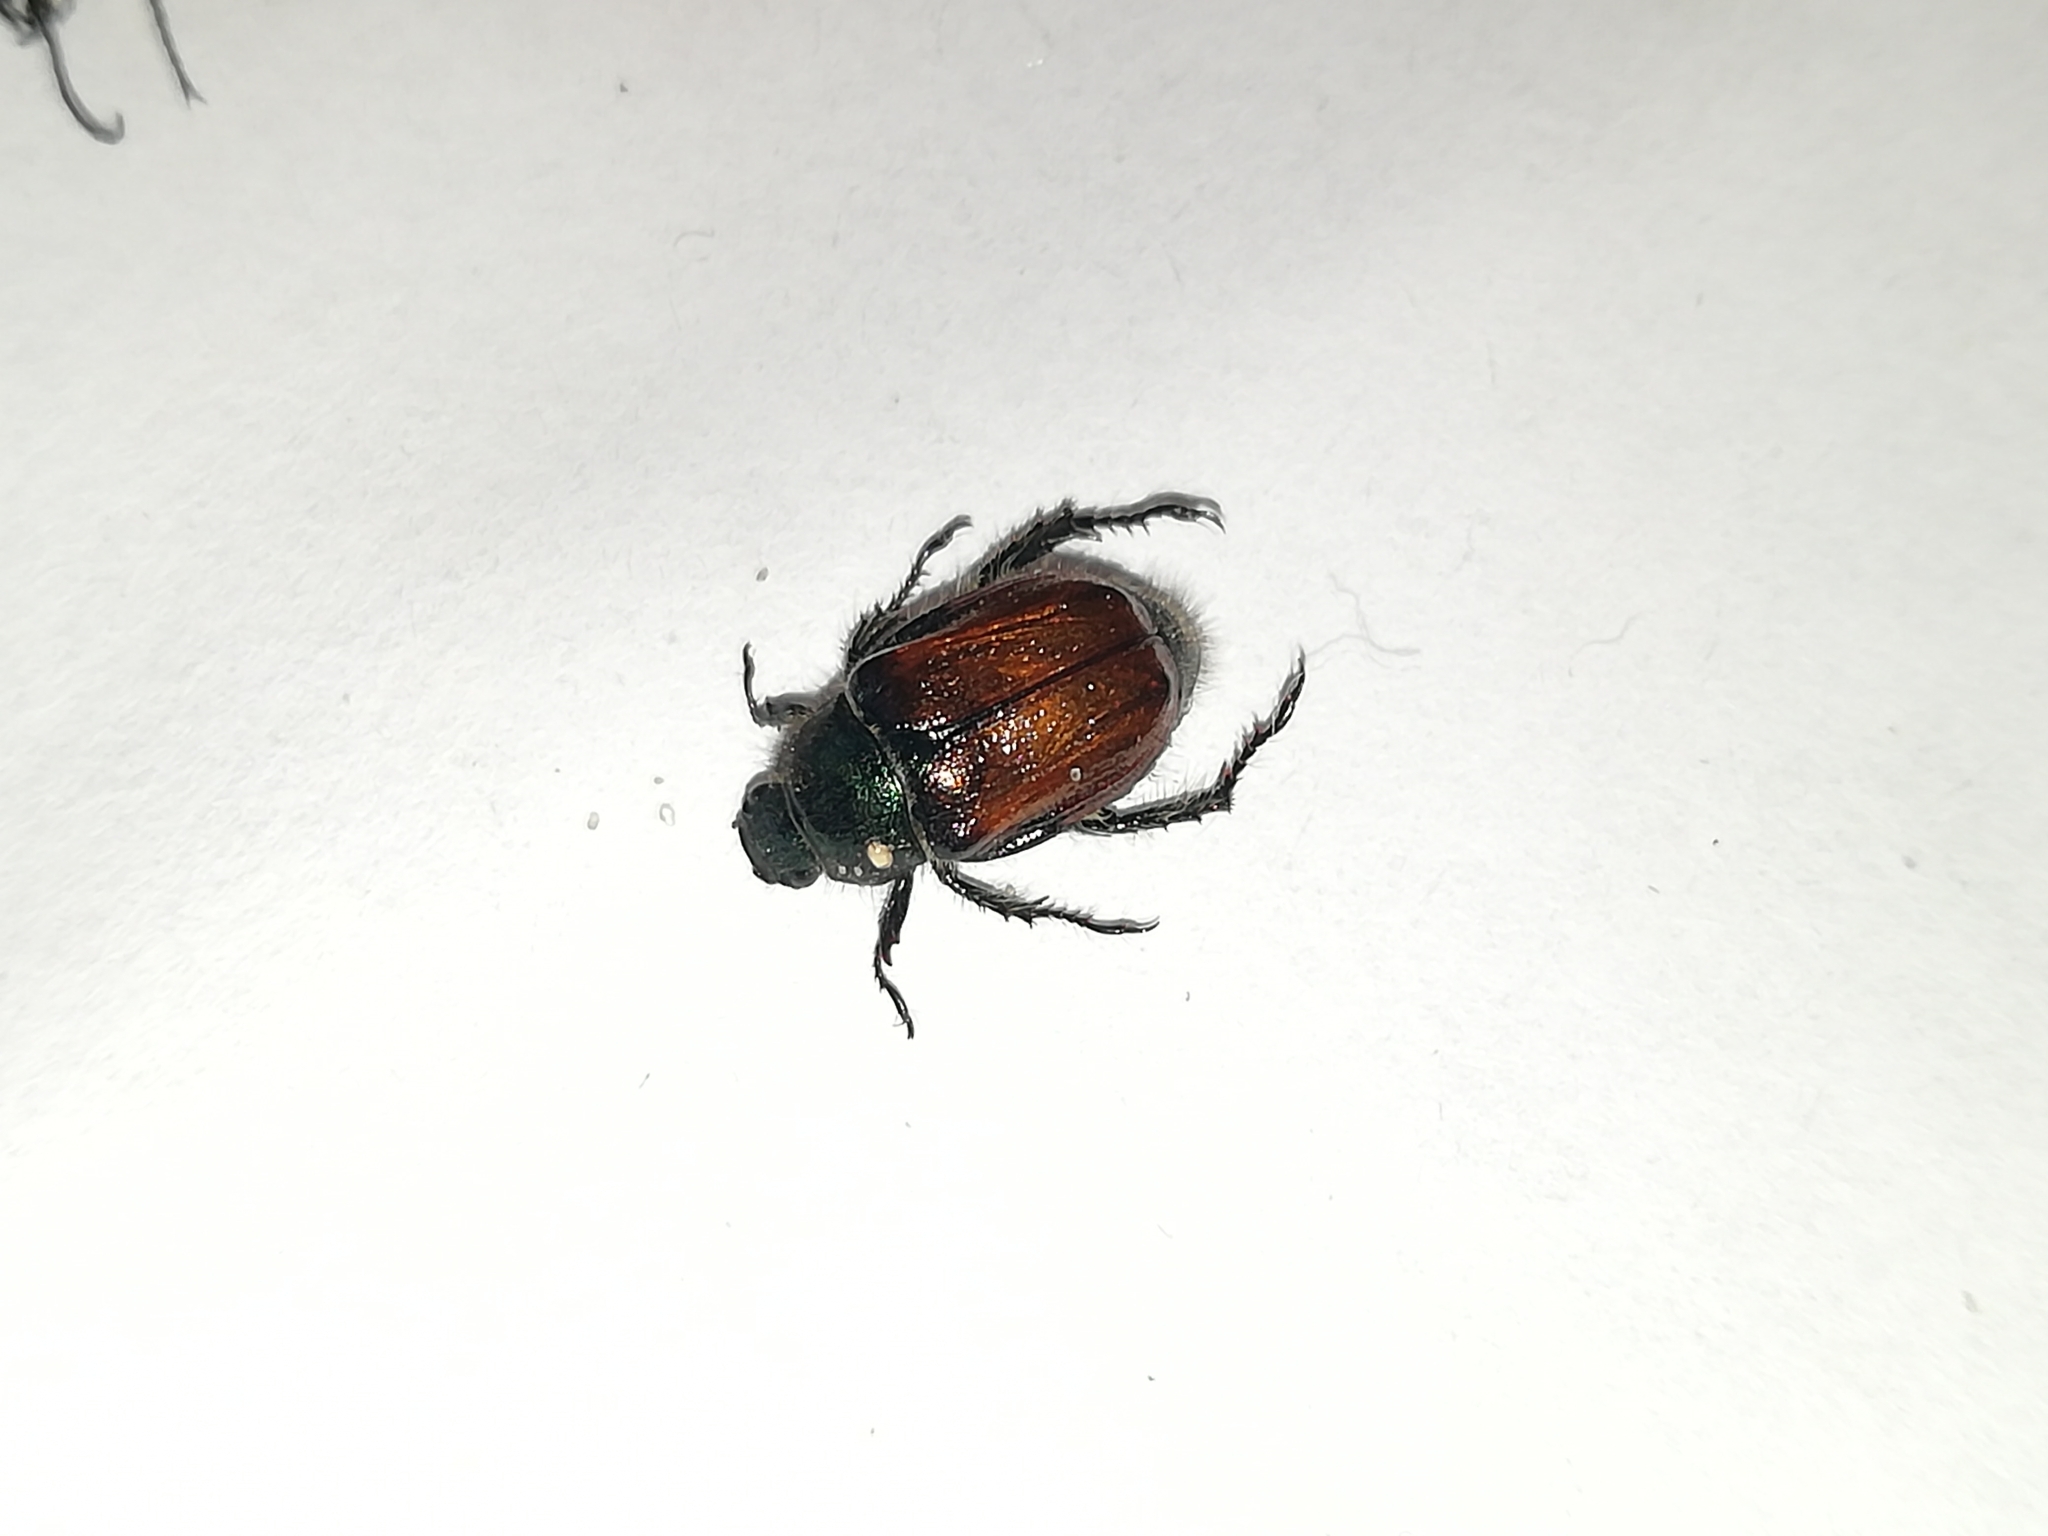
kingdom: Animalia
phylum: Arthropoda
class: Insecta
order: Coleoptera
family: Scarabaeidae
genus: Phyllopertha
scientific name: Phyllopertha horticola
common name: Garden chafer
